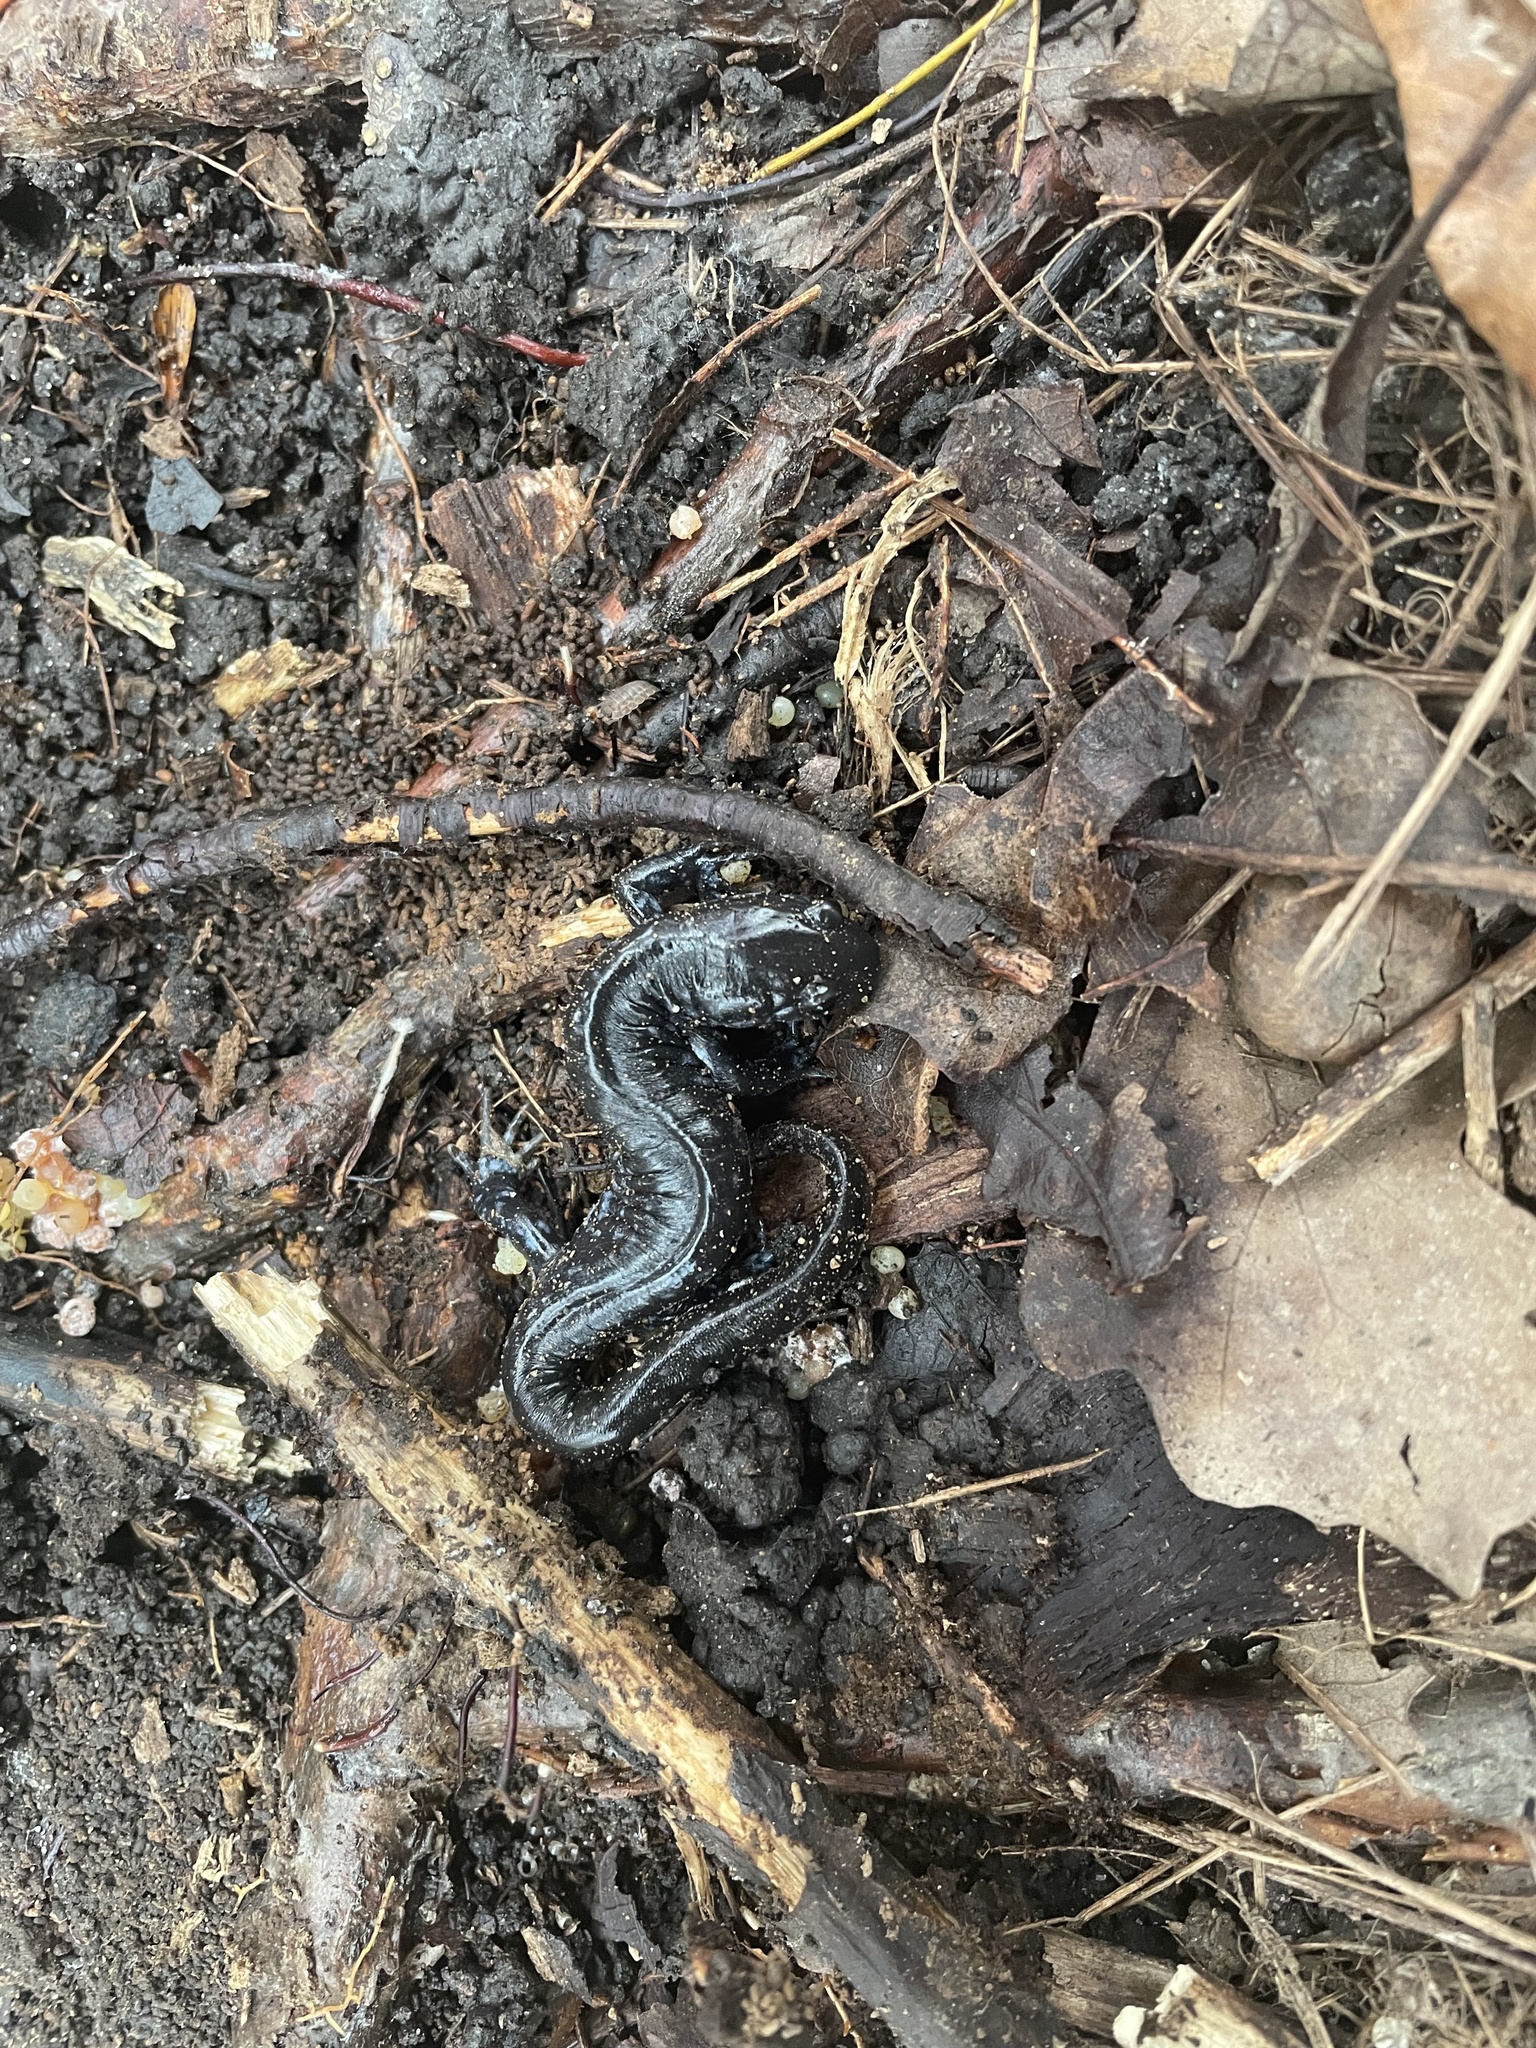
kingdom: Animalia
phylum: Chordata
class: Amphibia
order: Caudata
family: Ambystomatidae
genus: Ambystoma
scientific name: Ambystoma laterale
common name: Blue-spotted salamander
